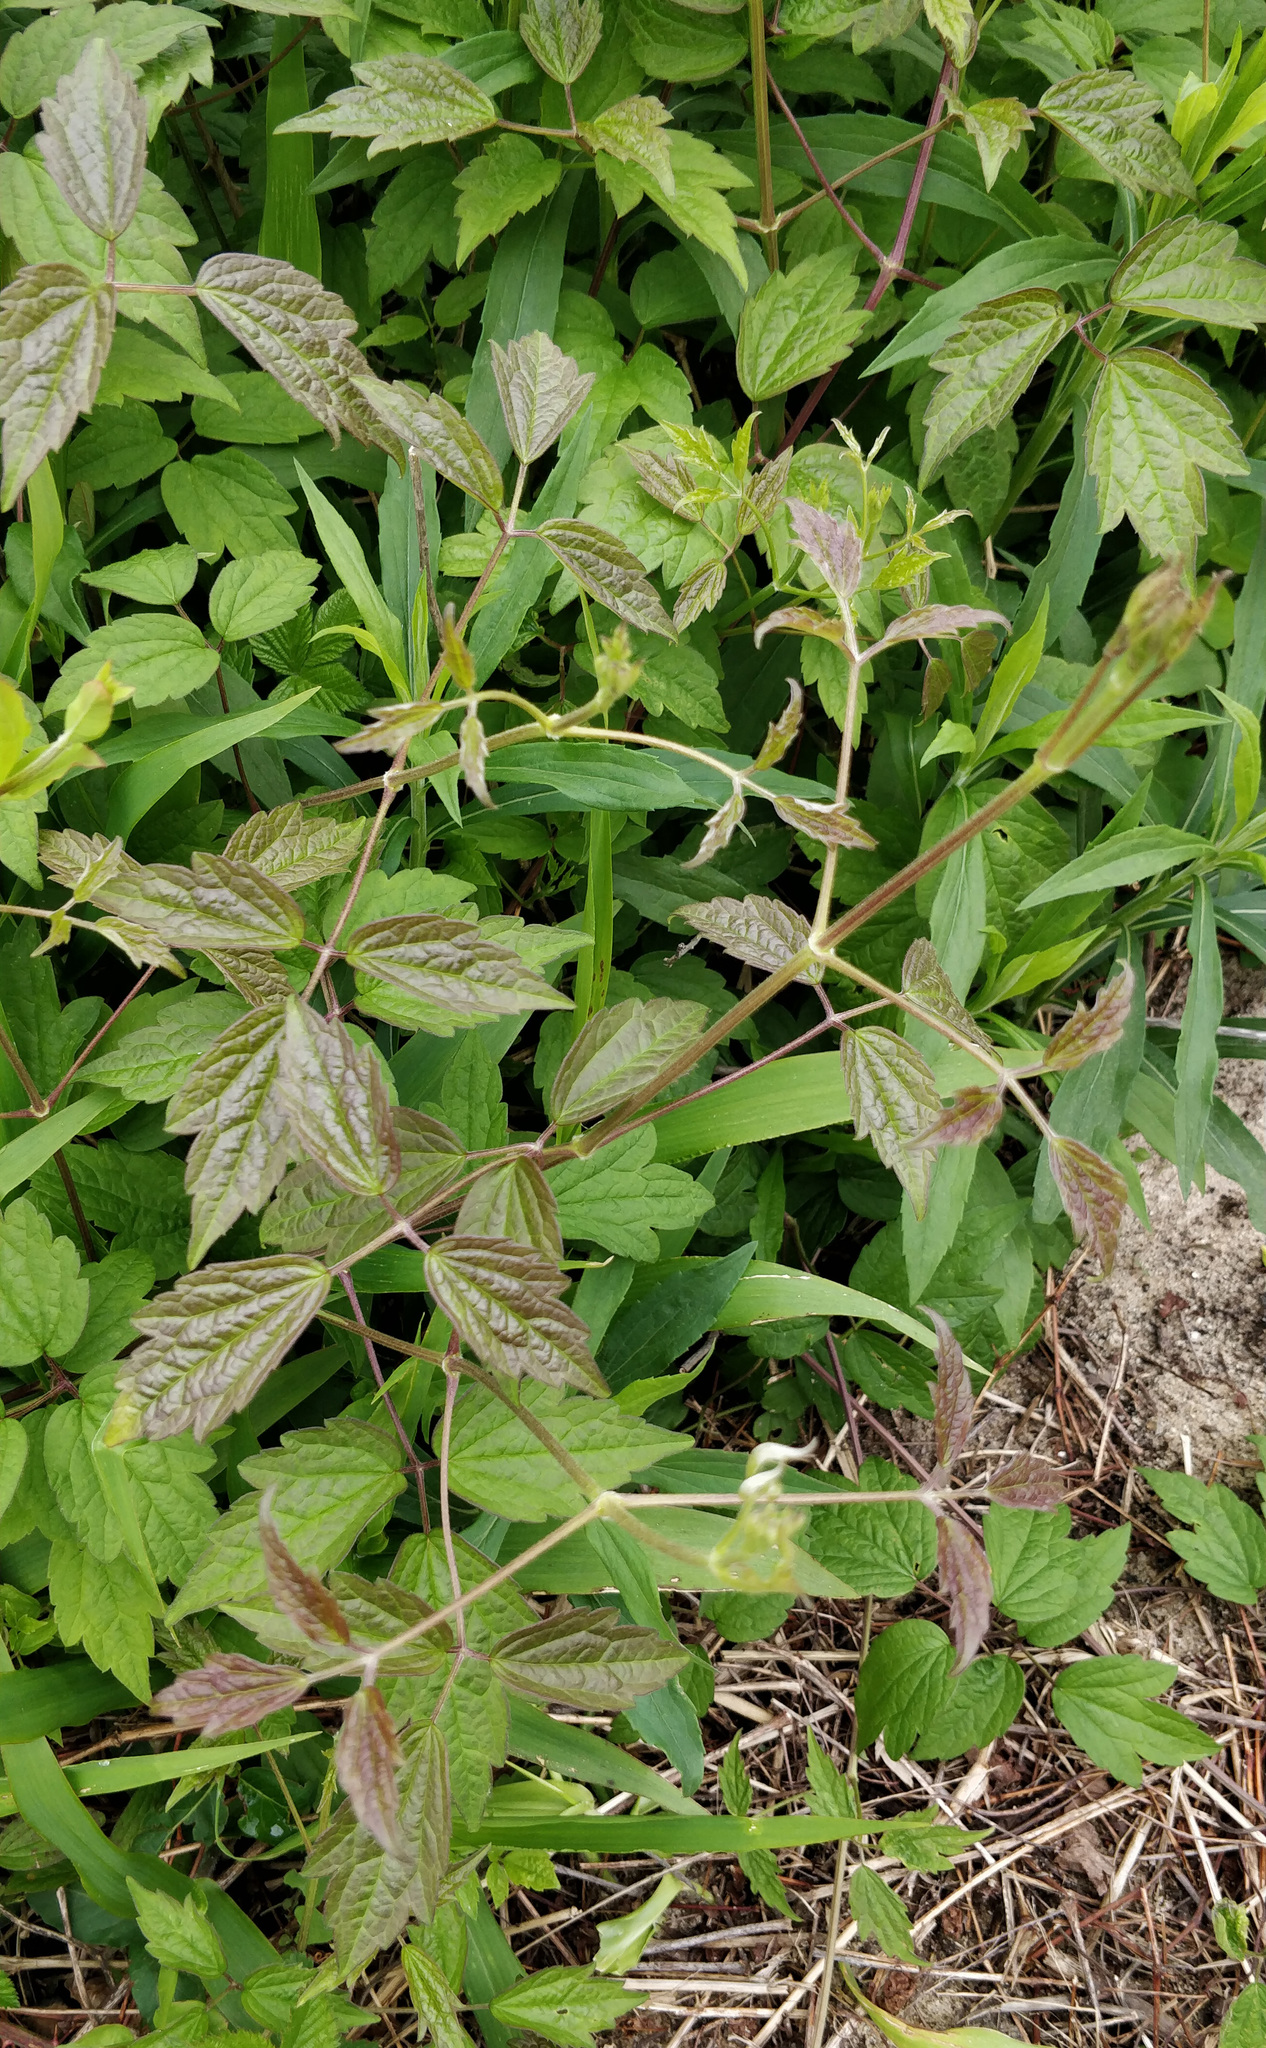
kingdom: Plantae
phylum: Tracheophyta
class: Magnoliopsida
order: Ranunculales
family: Ranunculaceae
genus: Clematis
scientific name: Clematis virginiana
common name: Virgin's-bower
